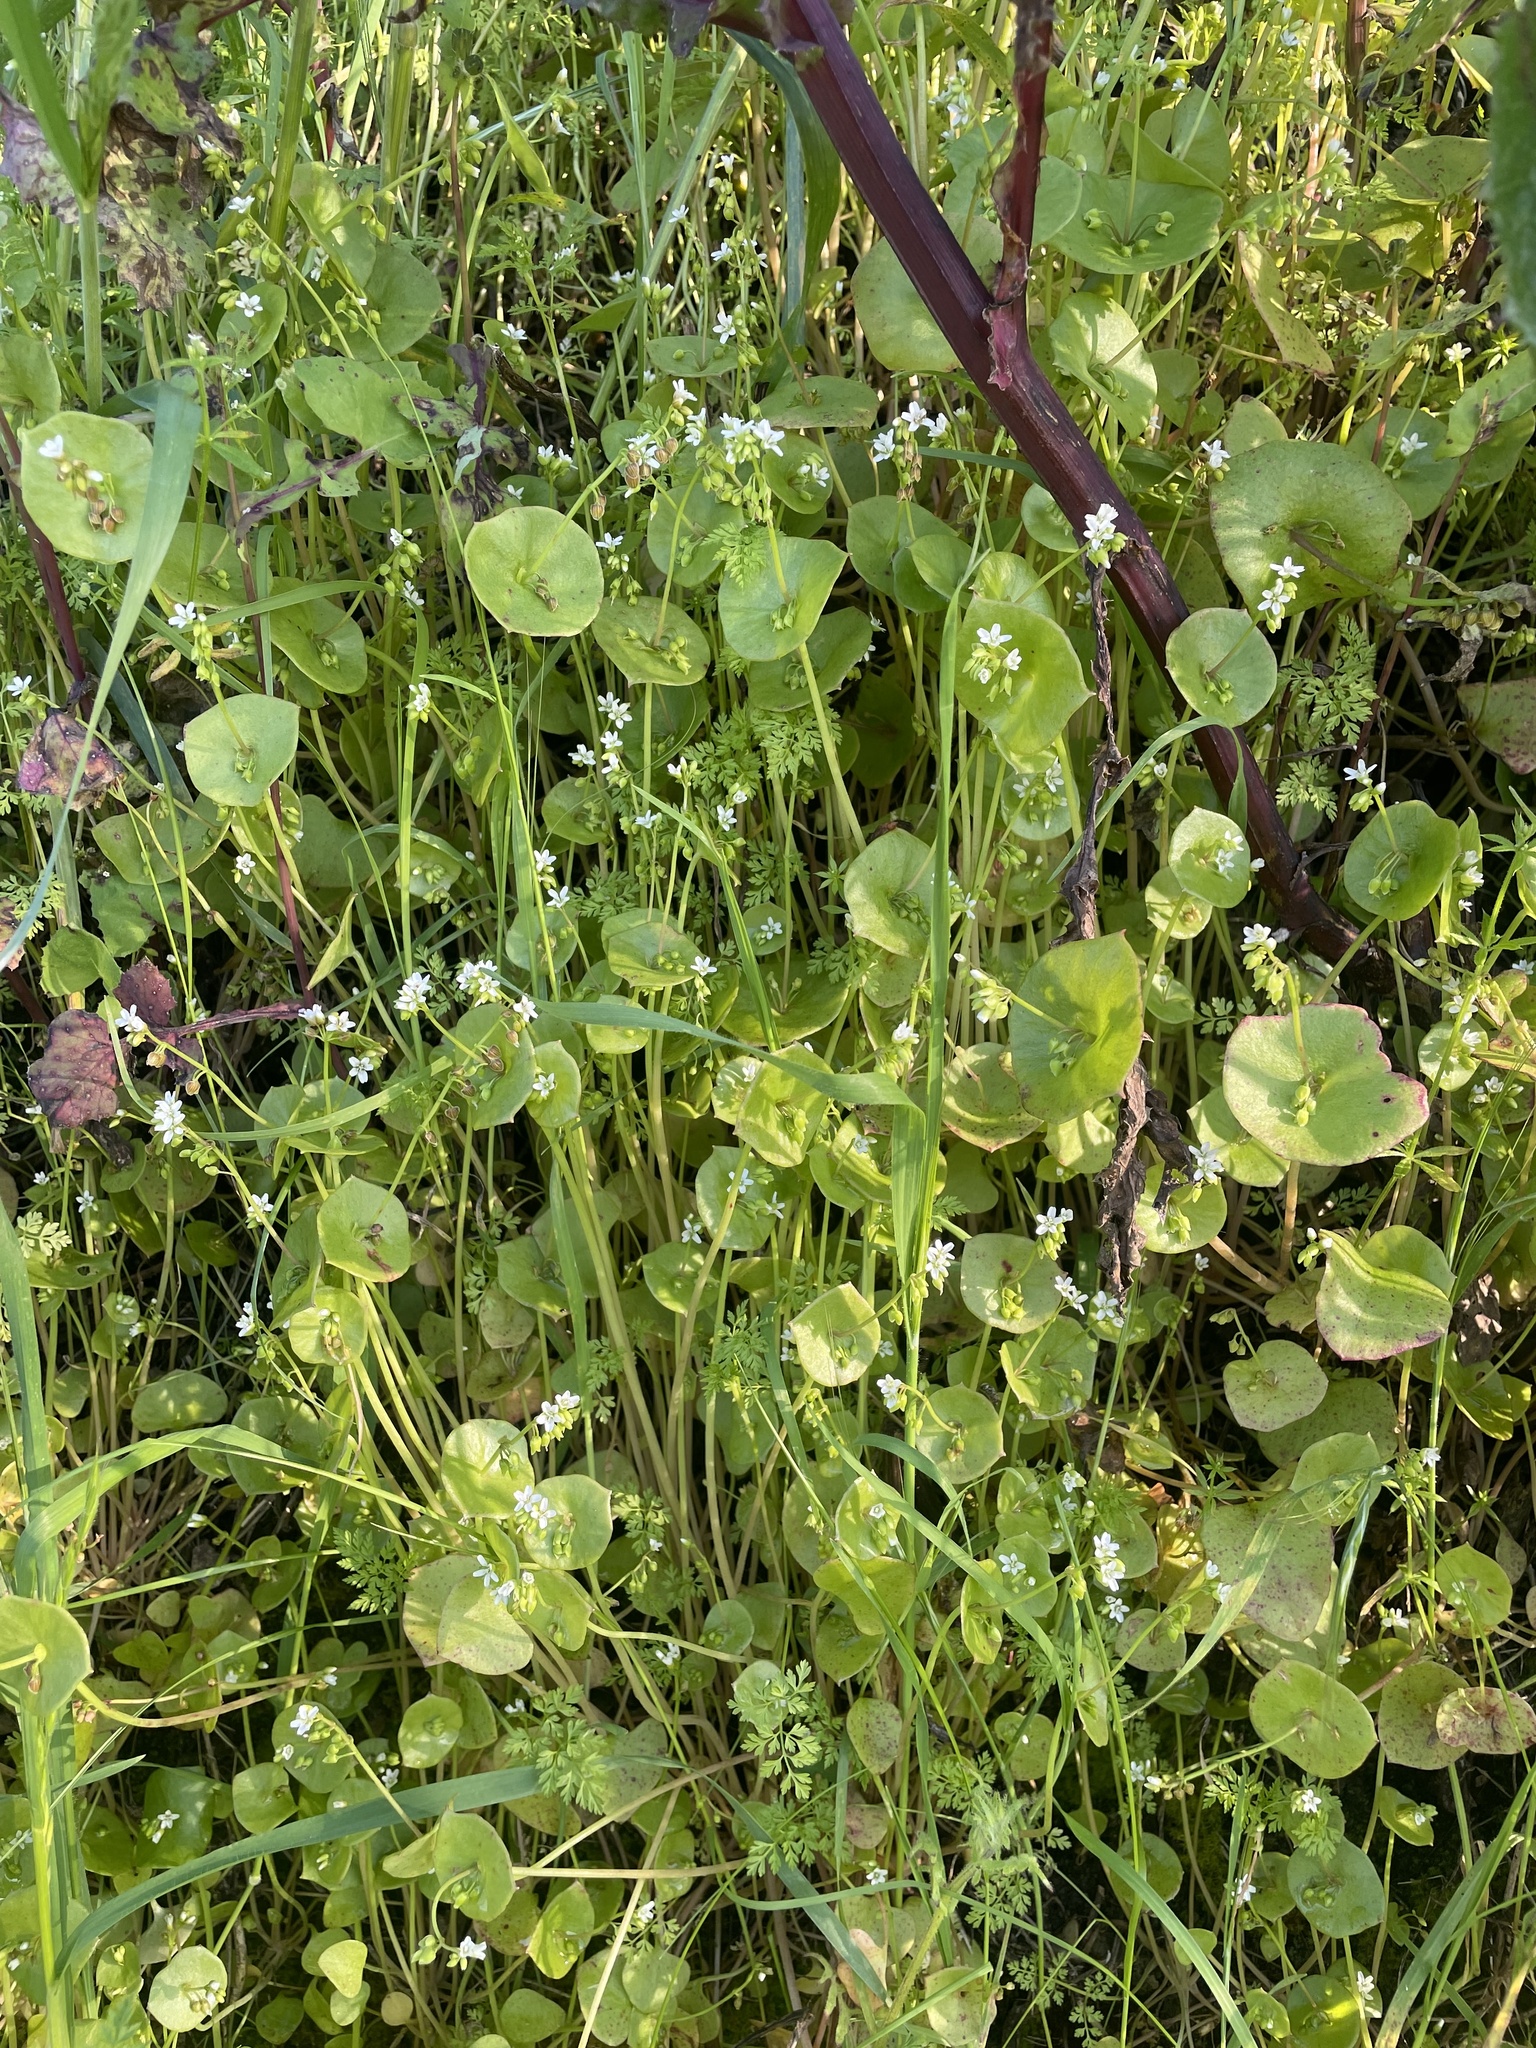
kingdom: Plantae
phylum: Tracheophyta
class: Magnoliopsida
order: Caryophyllales
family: Montiaceae
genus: Claytonia
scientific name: Claytonia perfoliata
